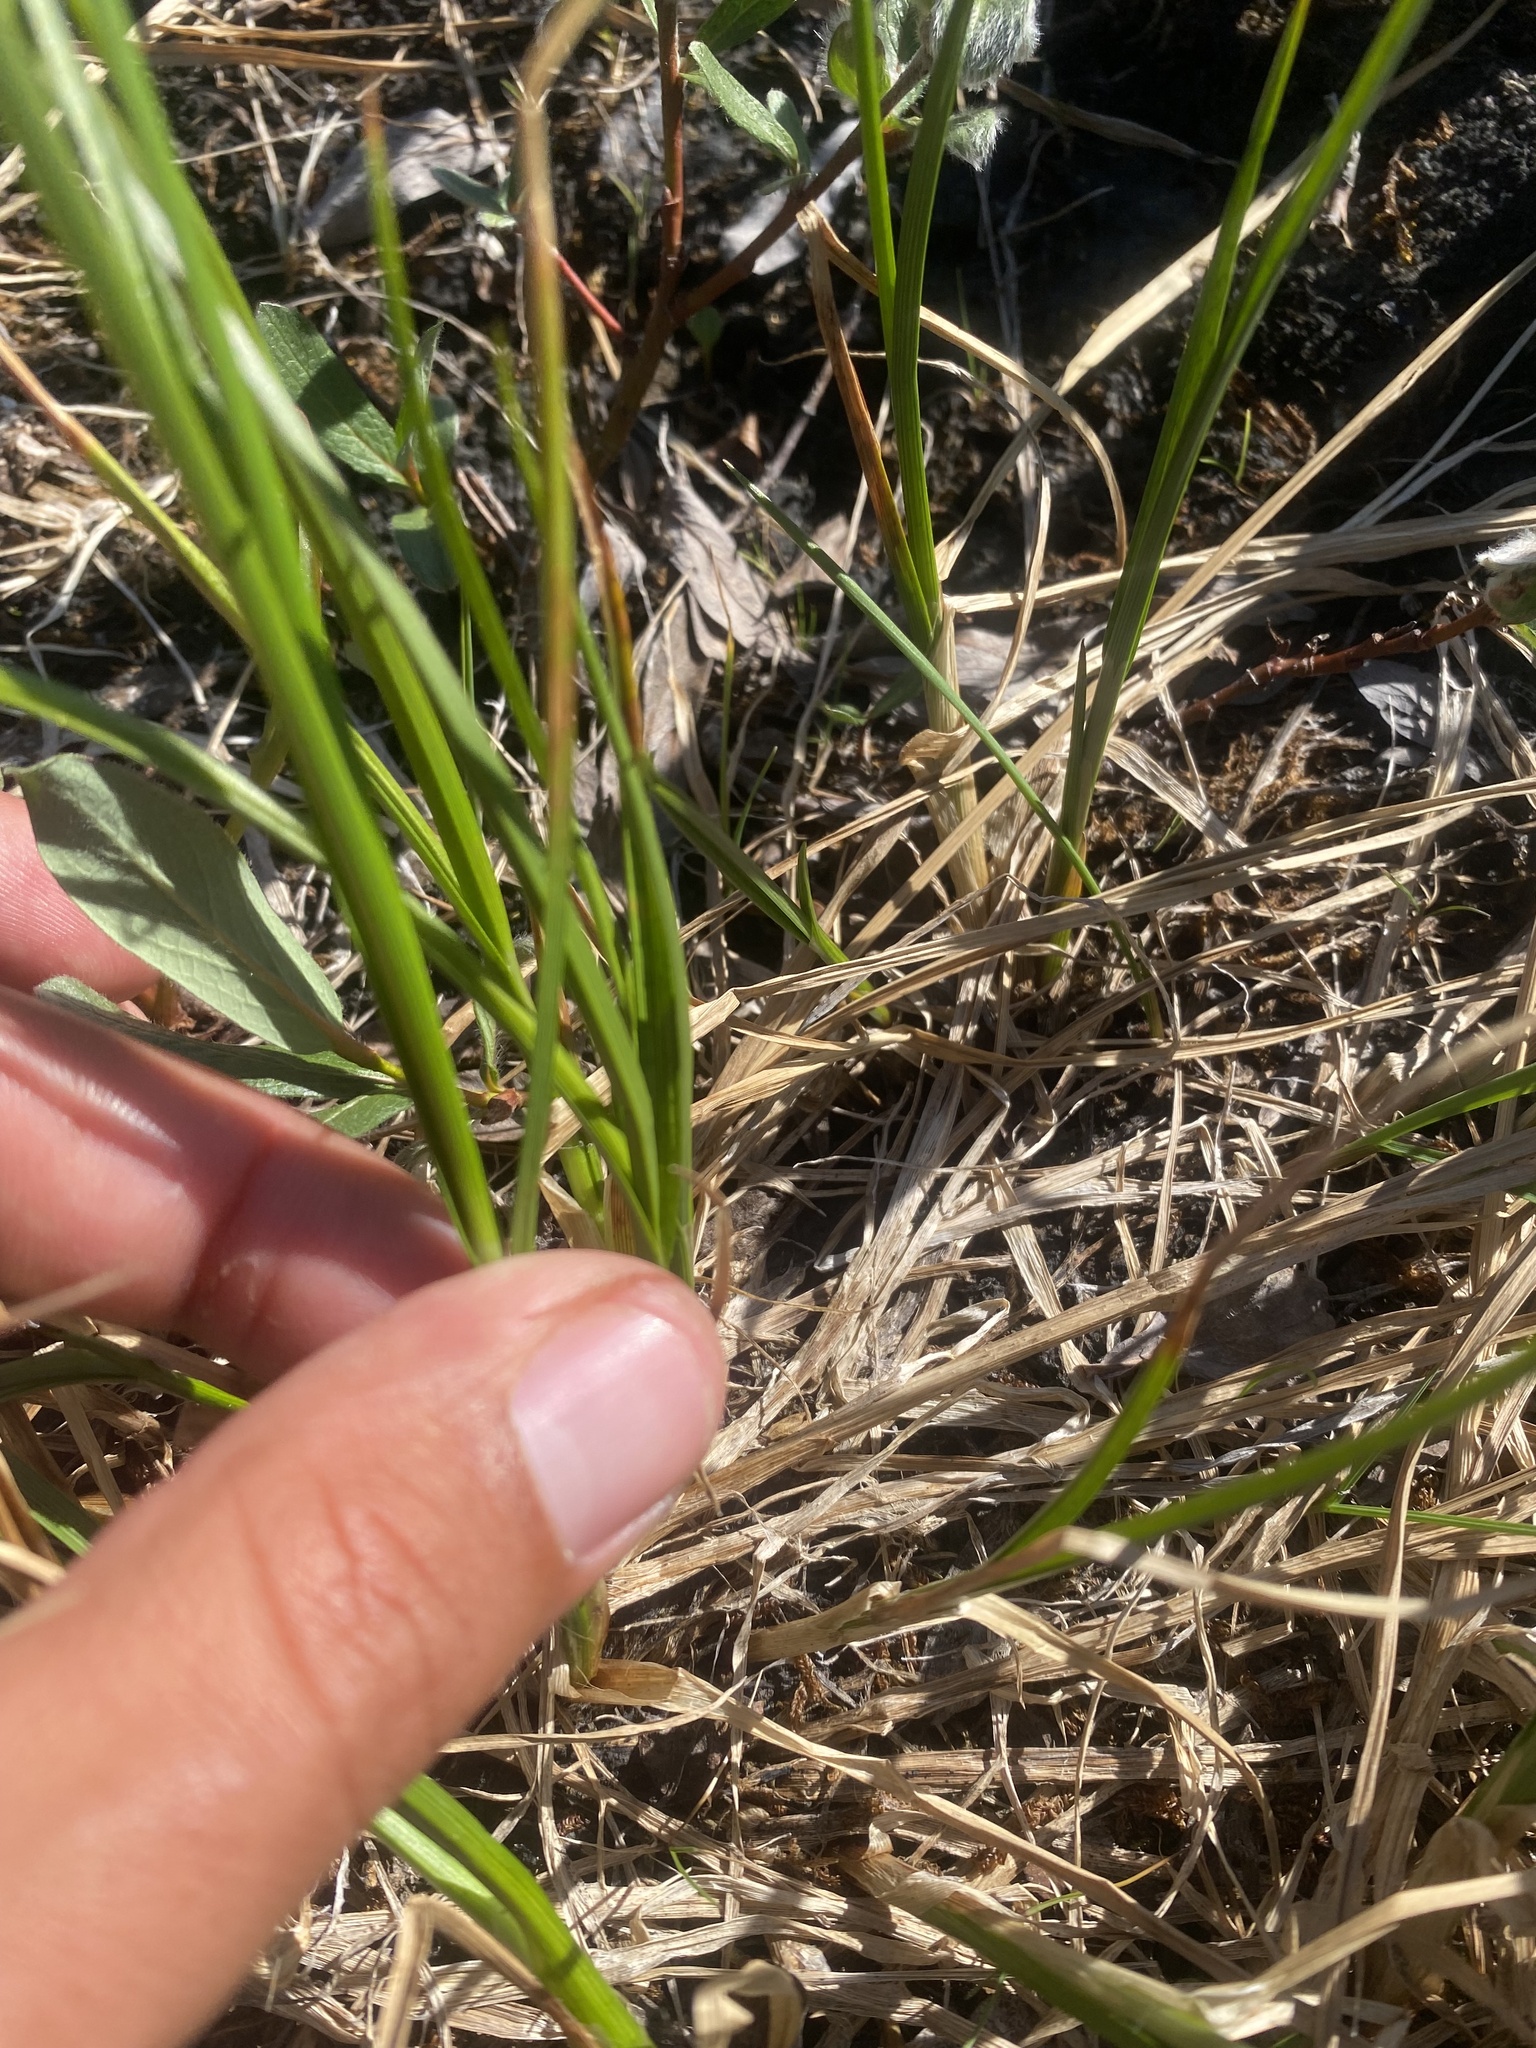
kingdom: Plantae
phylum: Tracheophyta
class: Liliopsida
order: Poales
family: Cyperaceae
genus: Carex
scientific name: Carex saxatilis
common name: Russet sedge
